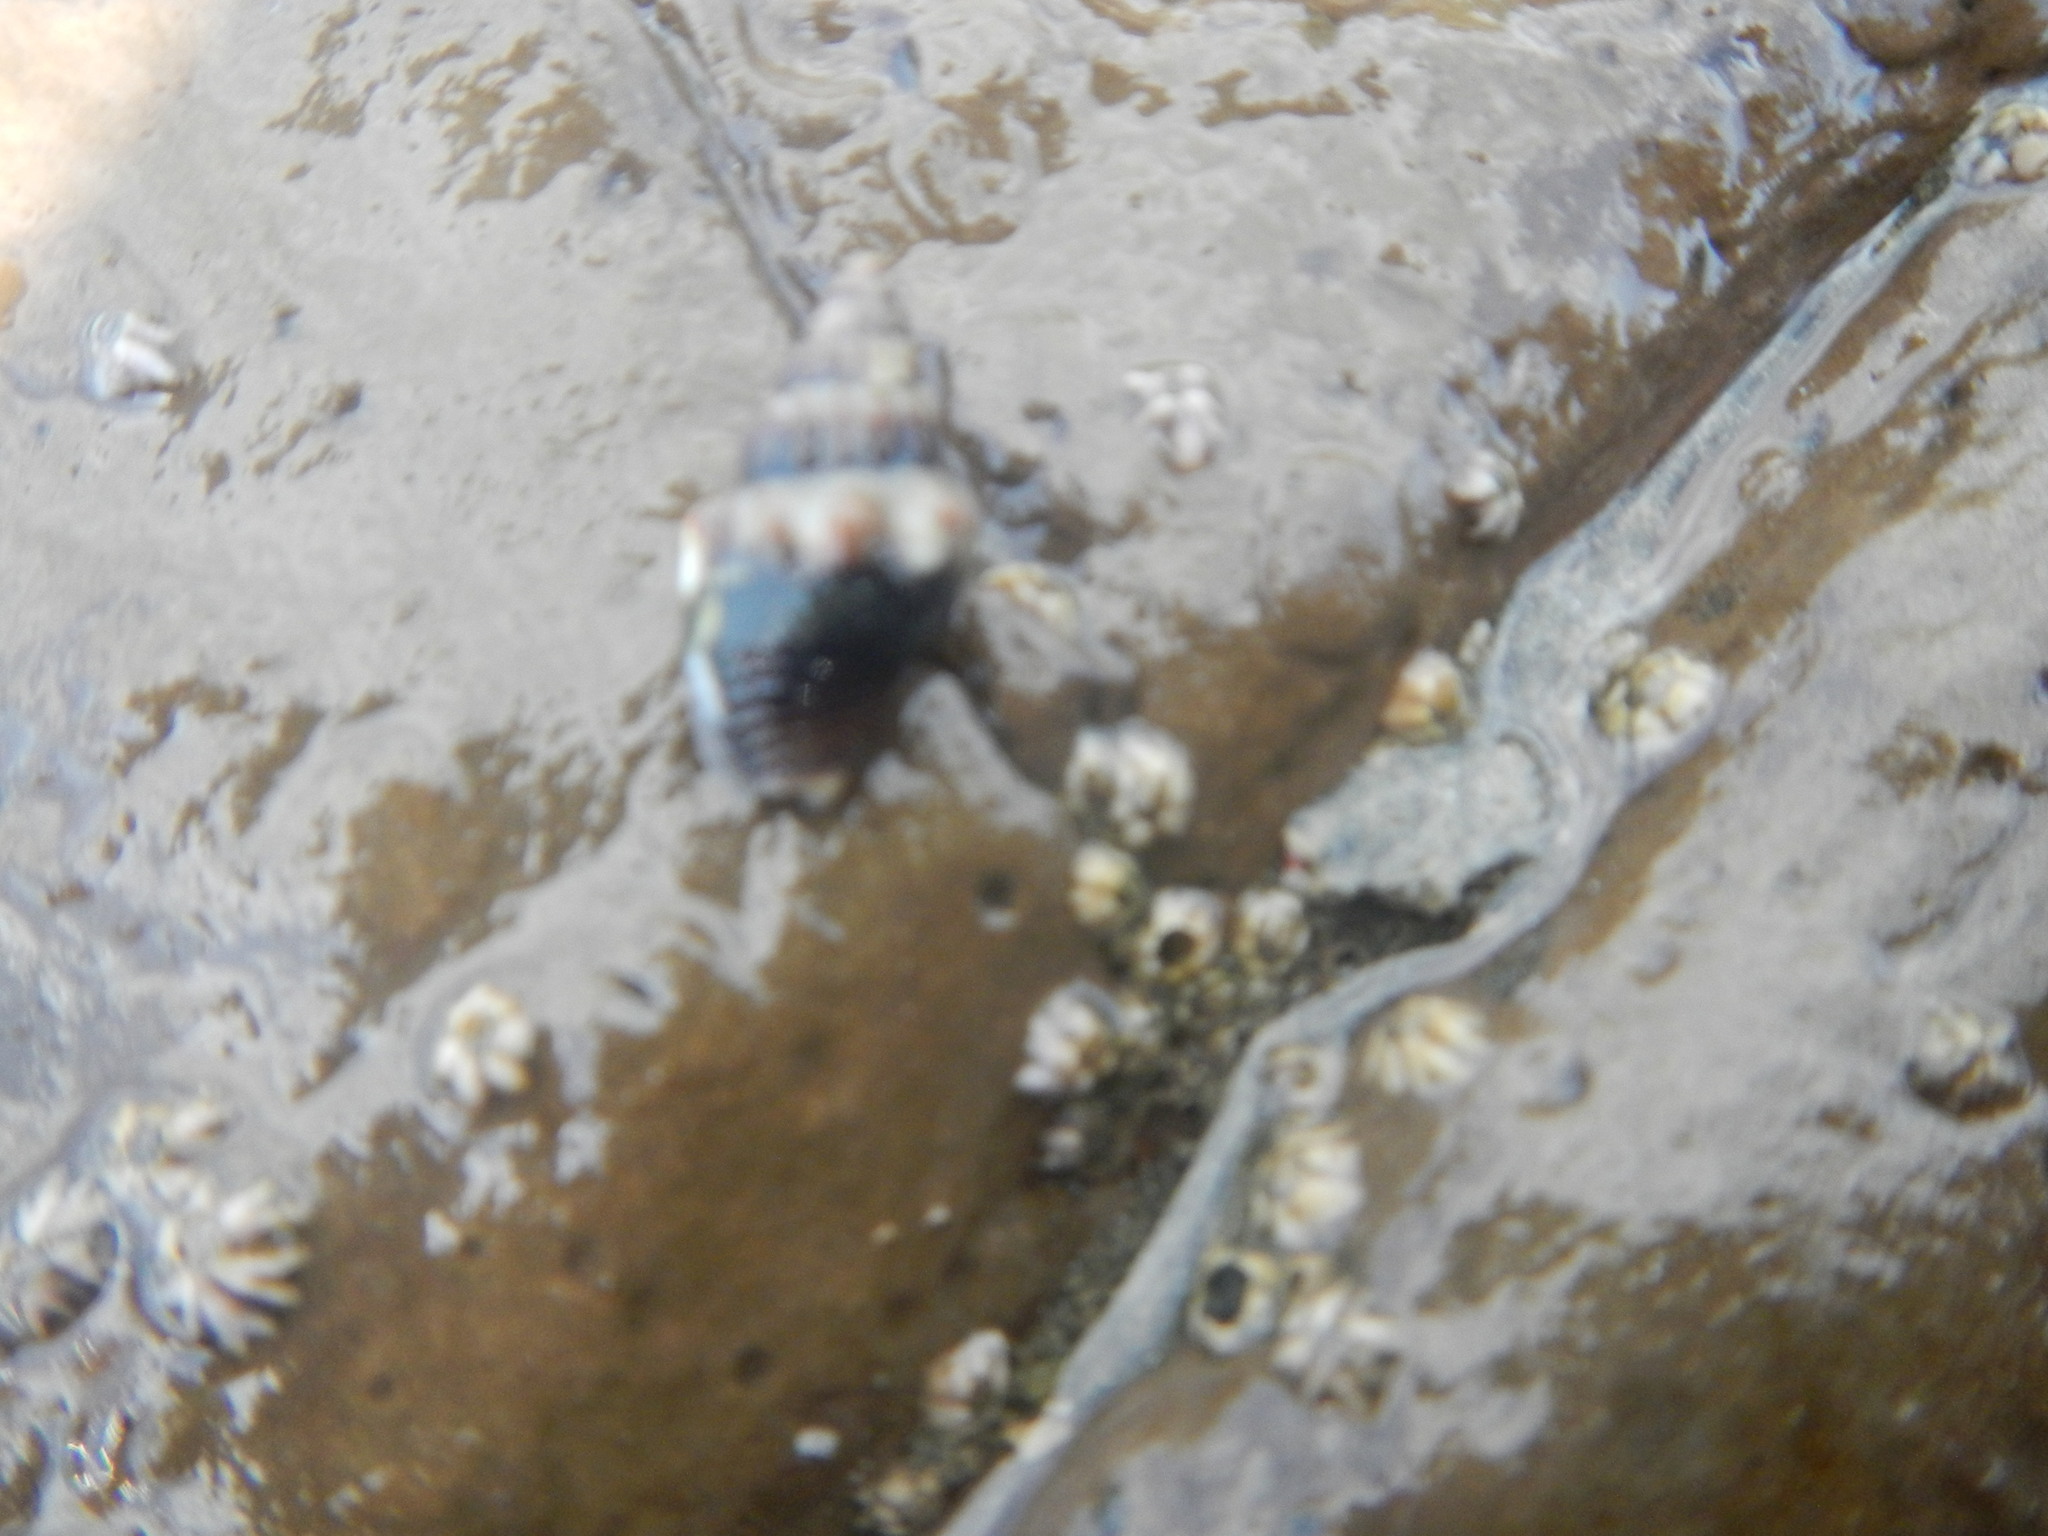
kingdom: Animalia
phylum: Mollusca
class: Gastropoda
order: Neogastropoda
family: Columbellidae
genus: Anachis
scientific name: Anachis rugosa
